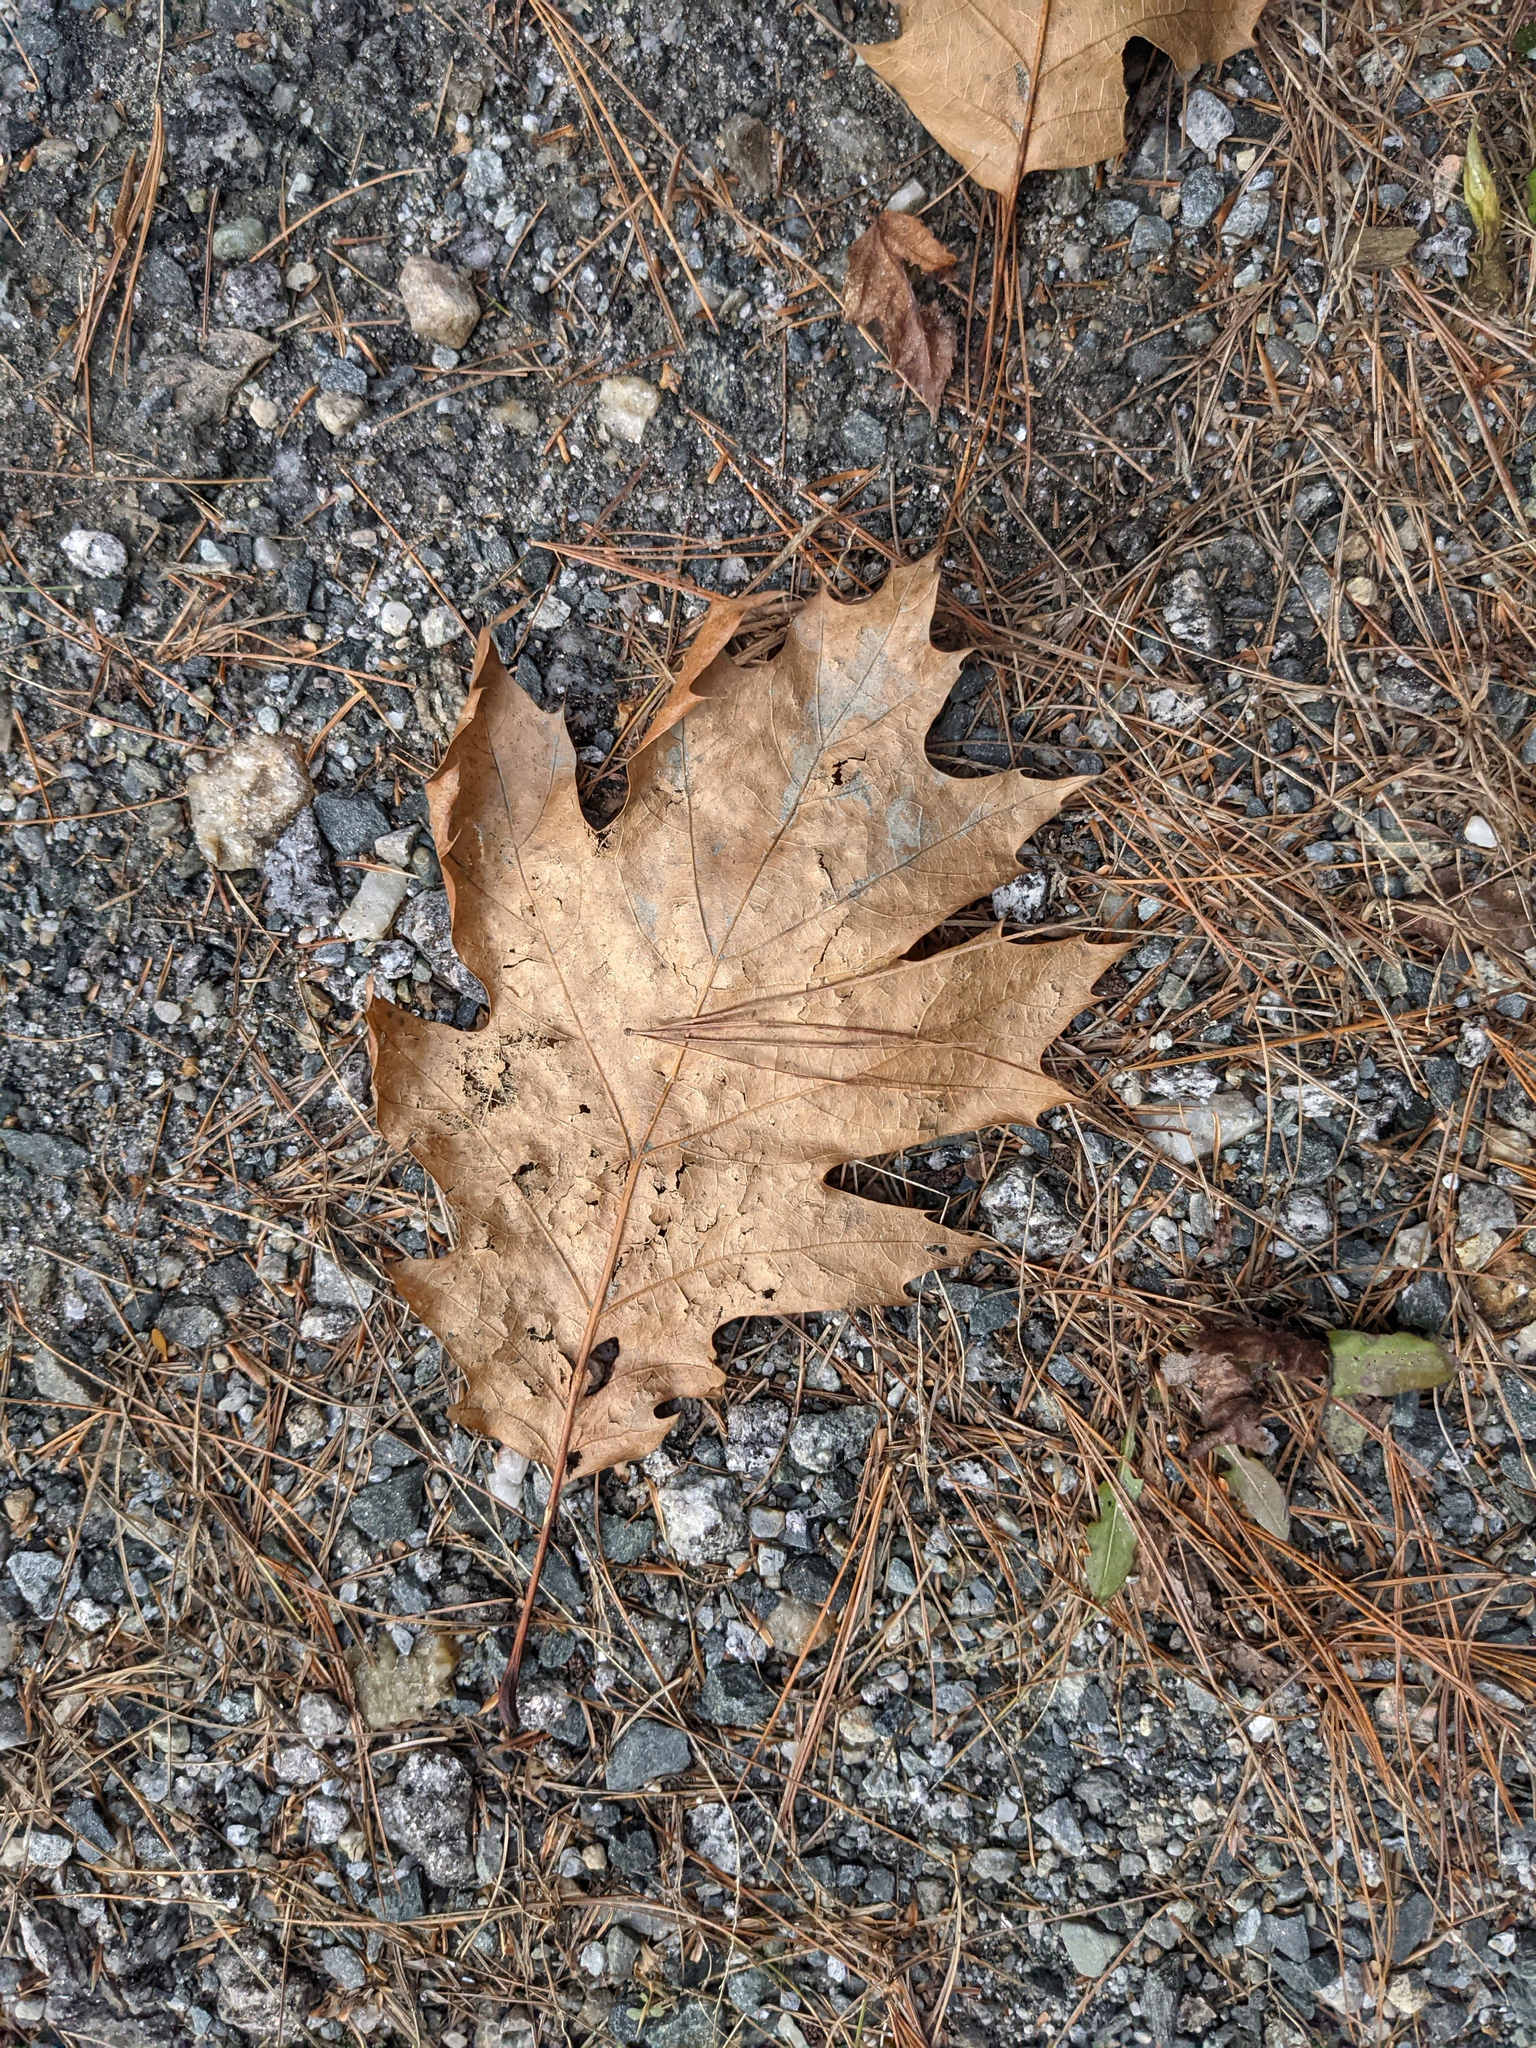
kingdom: Plantae
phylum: Tracheophyta
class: Magnoliopsida
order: Fagales
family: Fagaceae
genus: Quercus
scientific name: Quercus rubra
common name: Red oak
